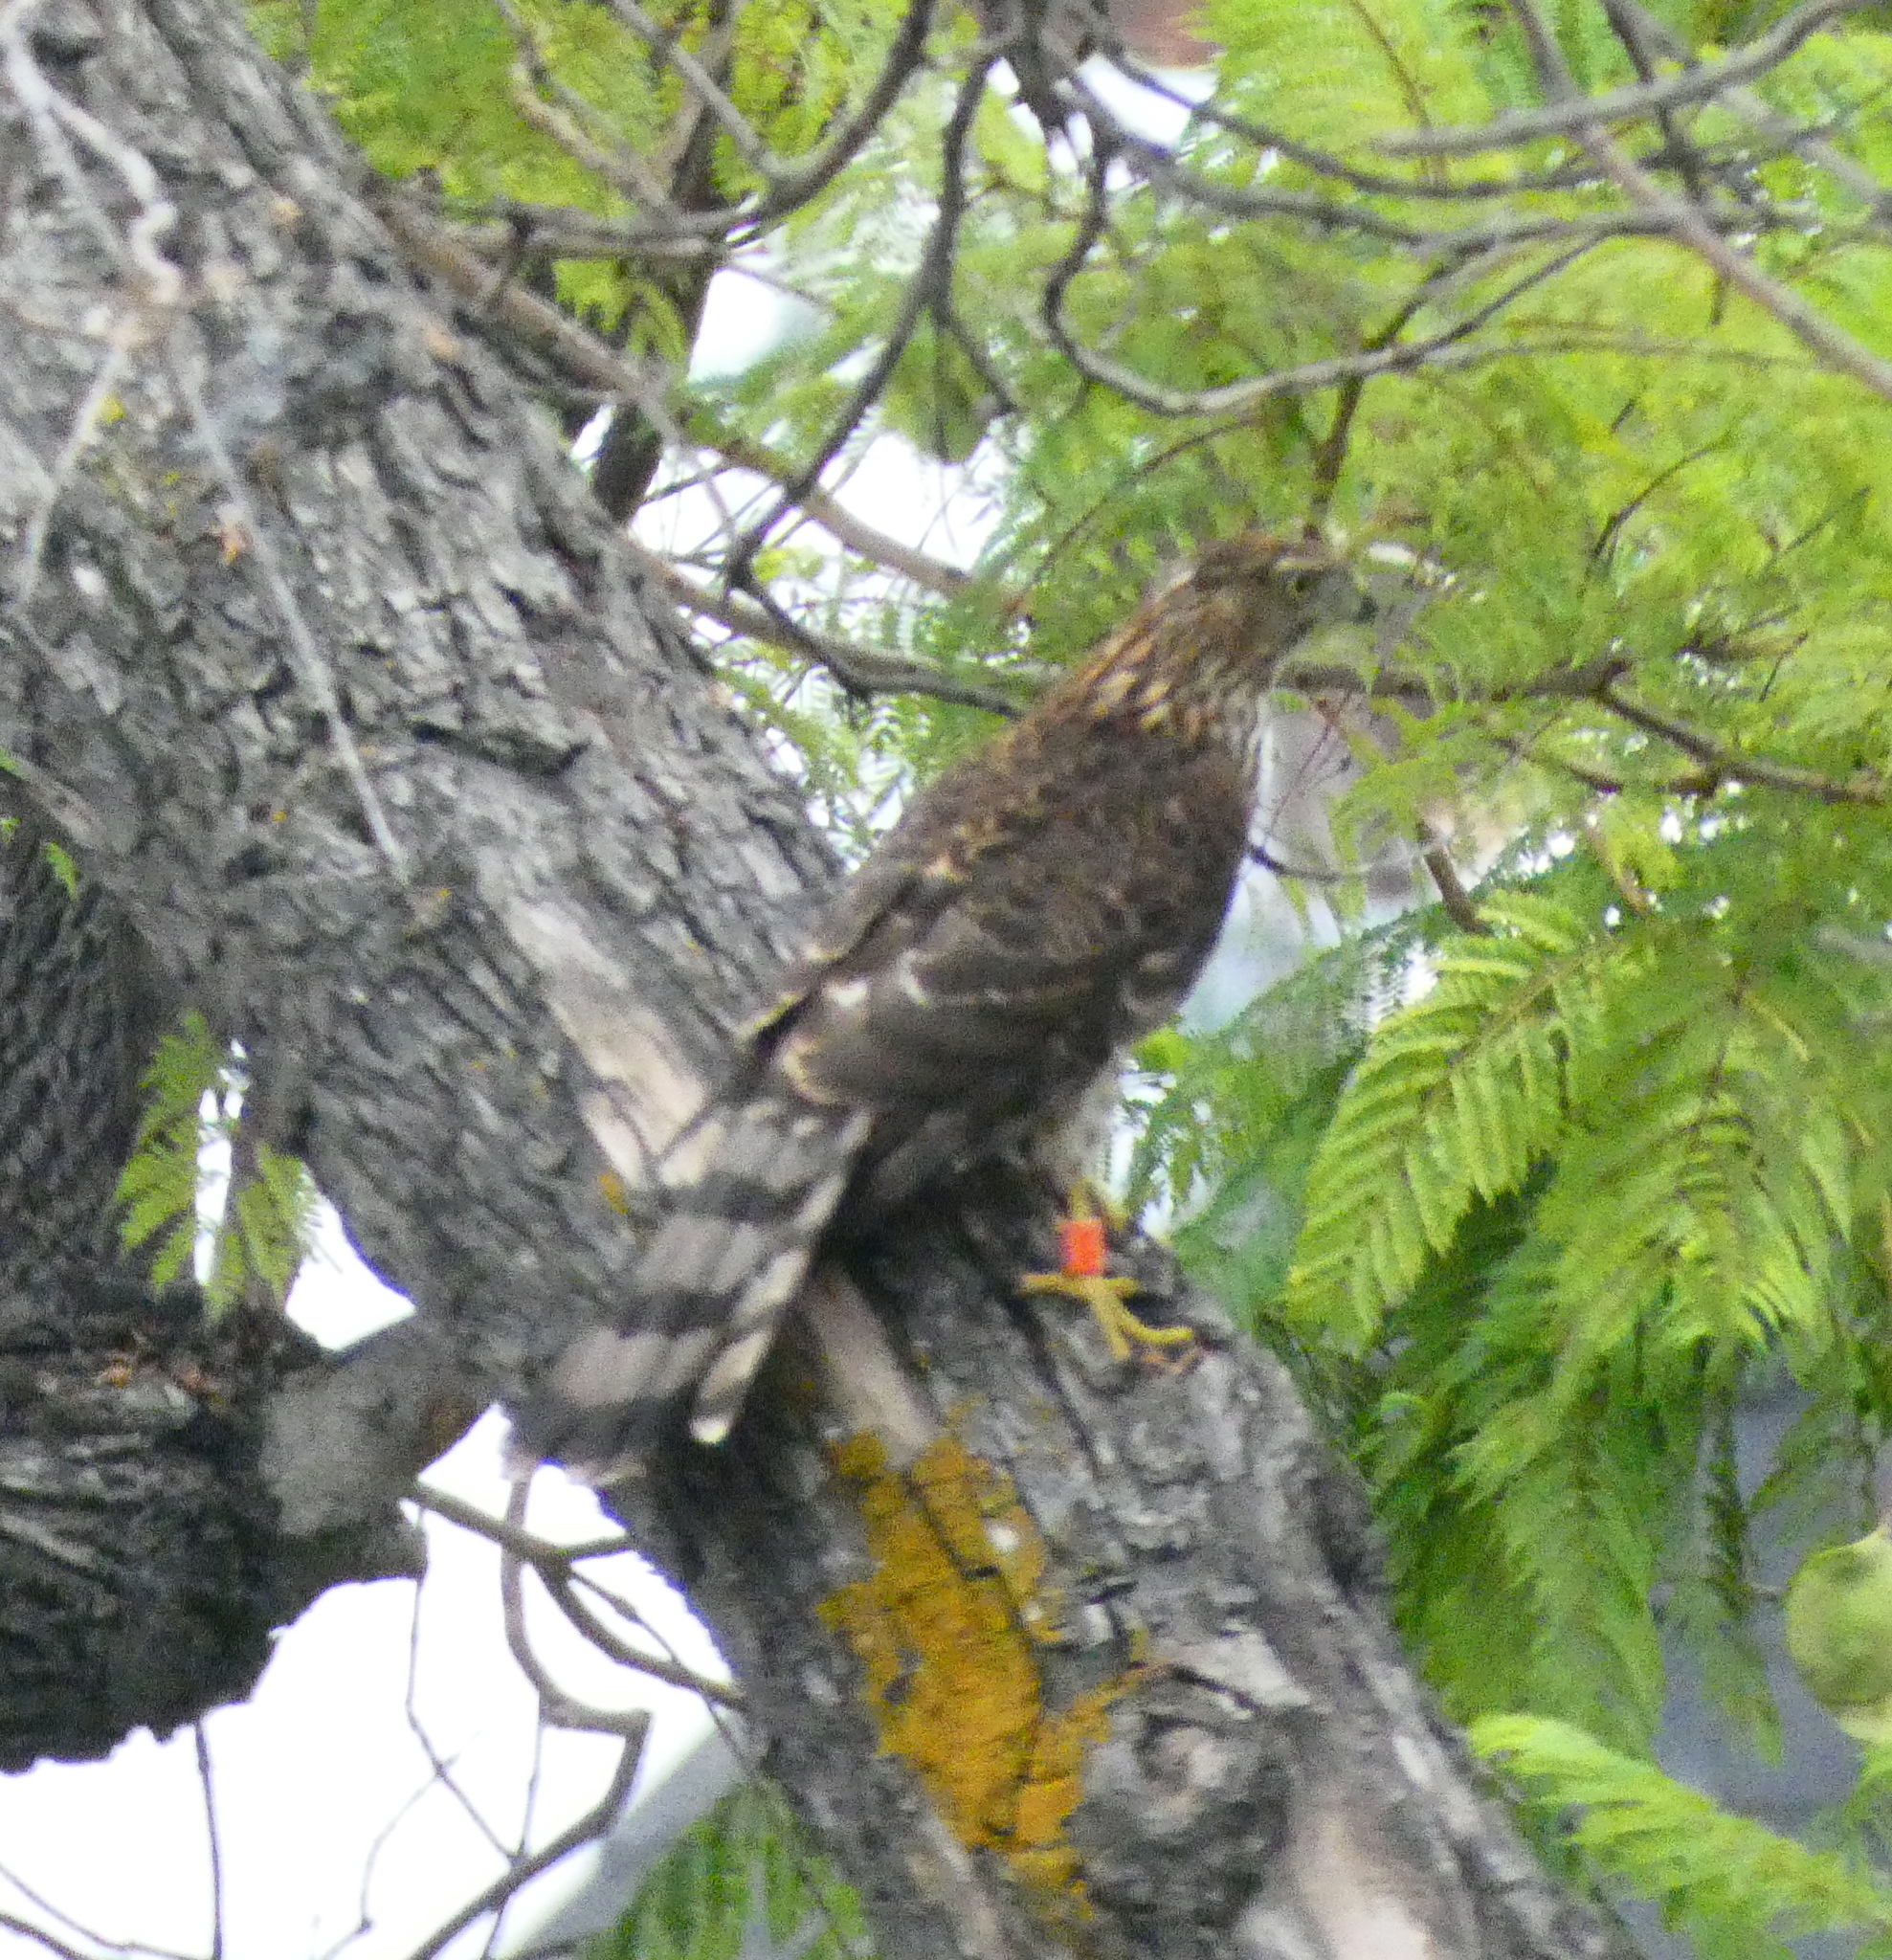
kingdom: Animalia
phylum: Chordata
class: Aves
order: Accipitriformes
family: Accipitridae
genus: Accipiter
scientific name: Accipiter cooperii
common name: Cooper's hawk
